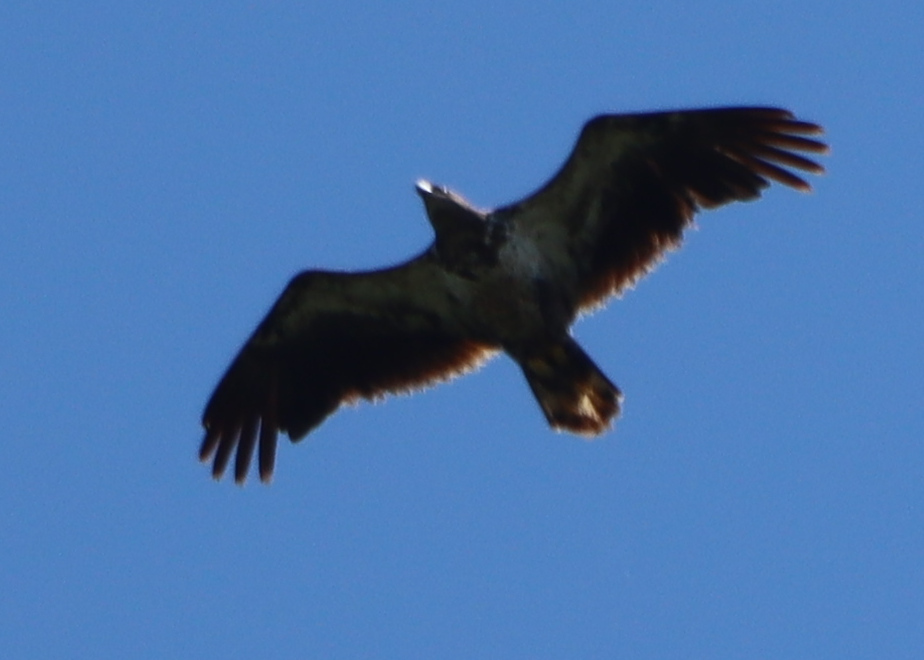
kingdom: Animalia
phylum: Chordata
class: Aves
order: Accipitriformes
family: Accipitridae
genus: Haliaeetus
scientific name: Haliaeetus leucocephalus
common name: Bald eagle
